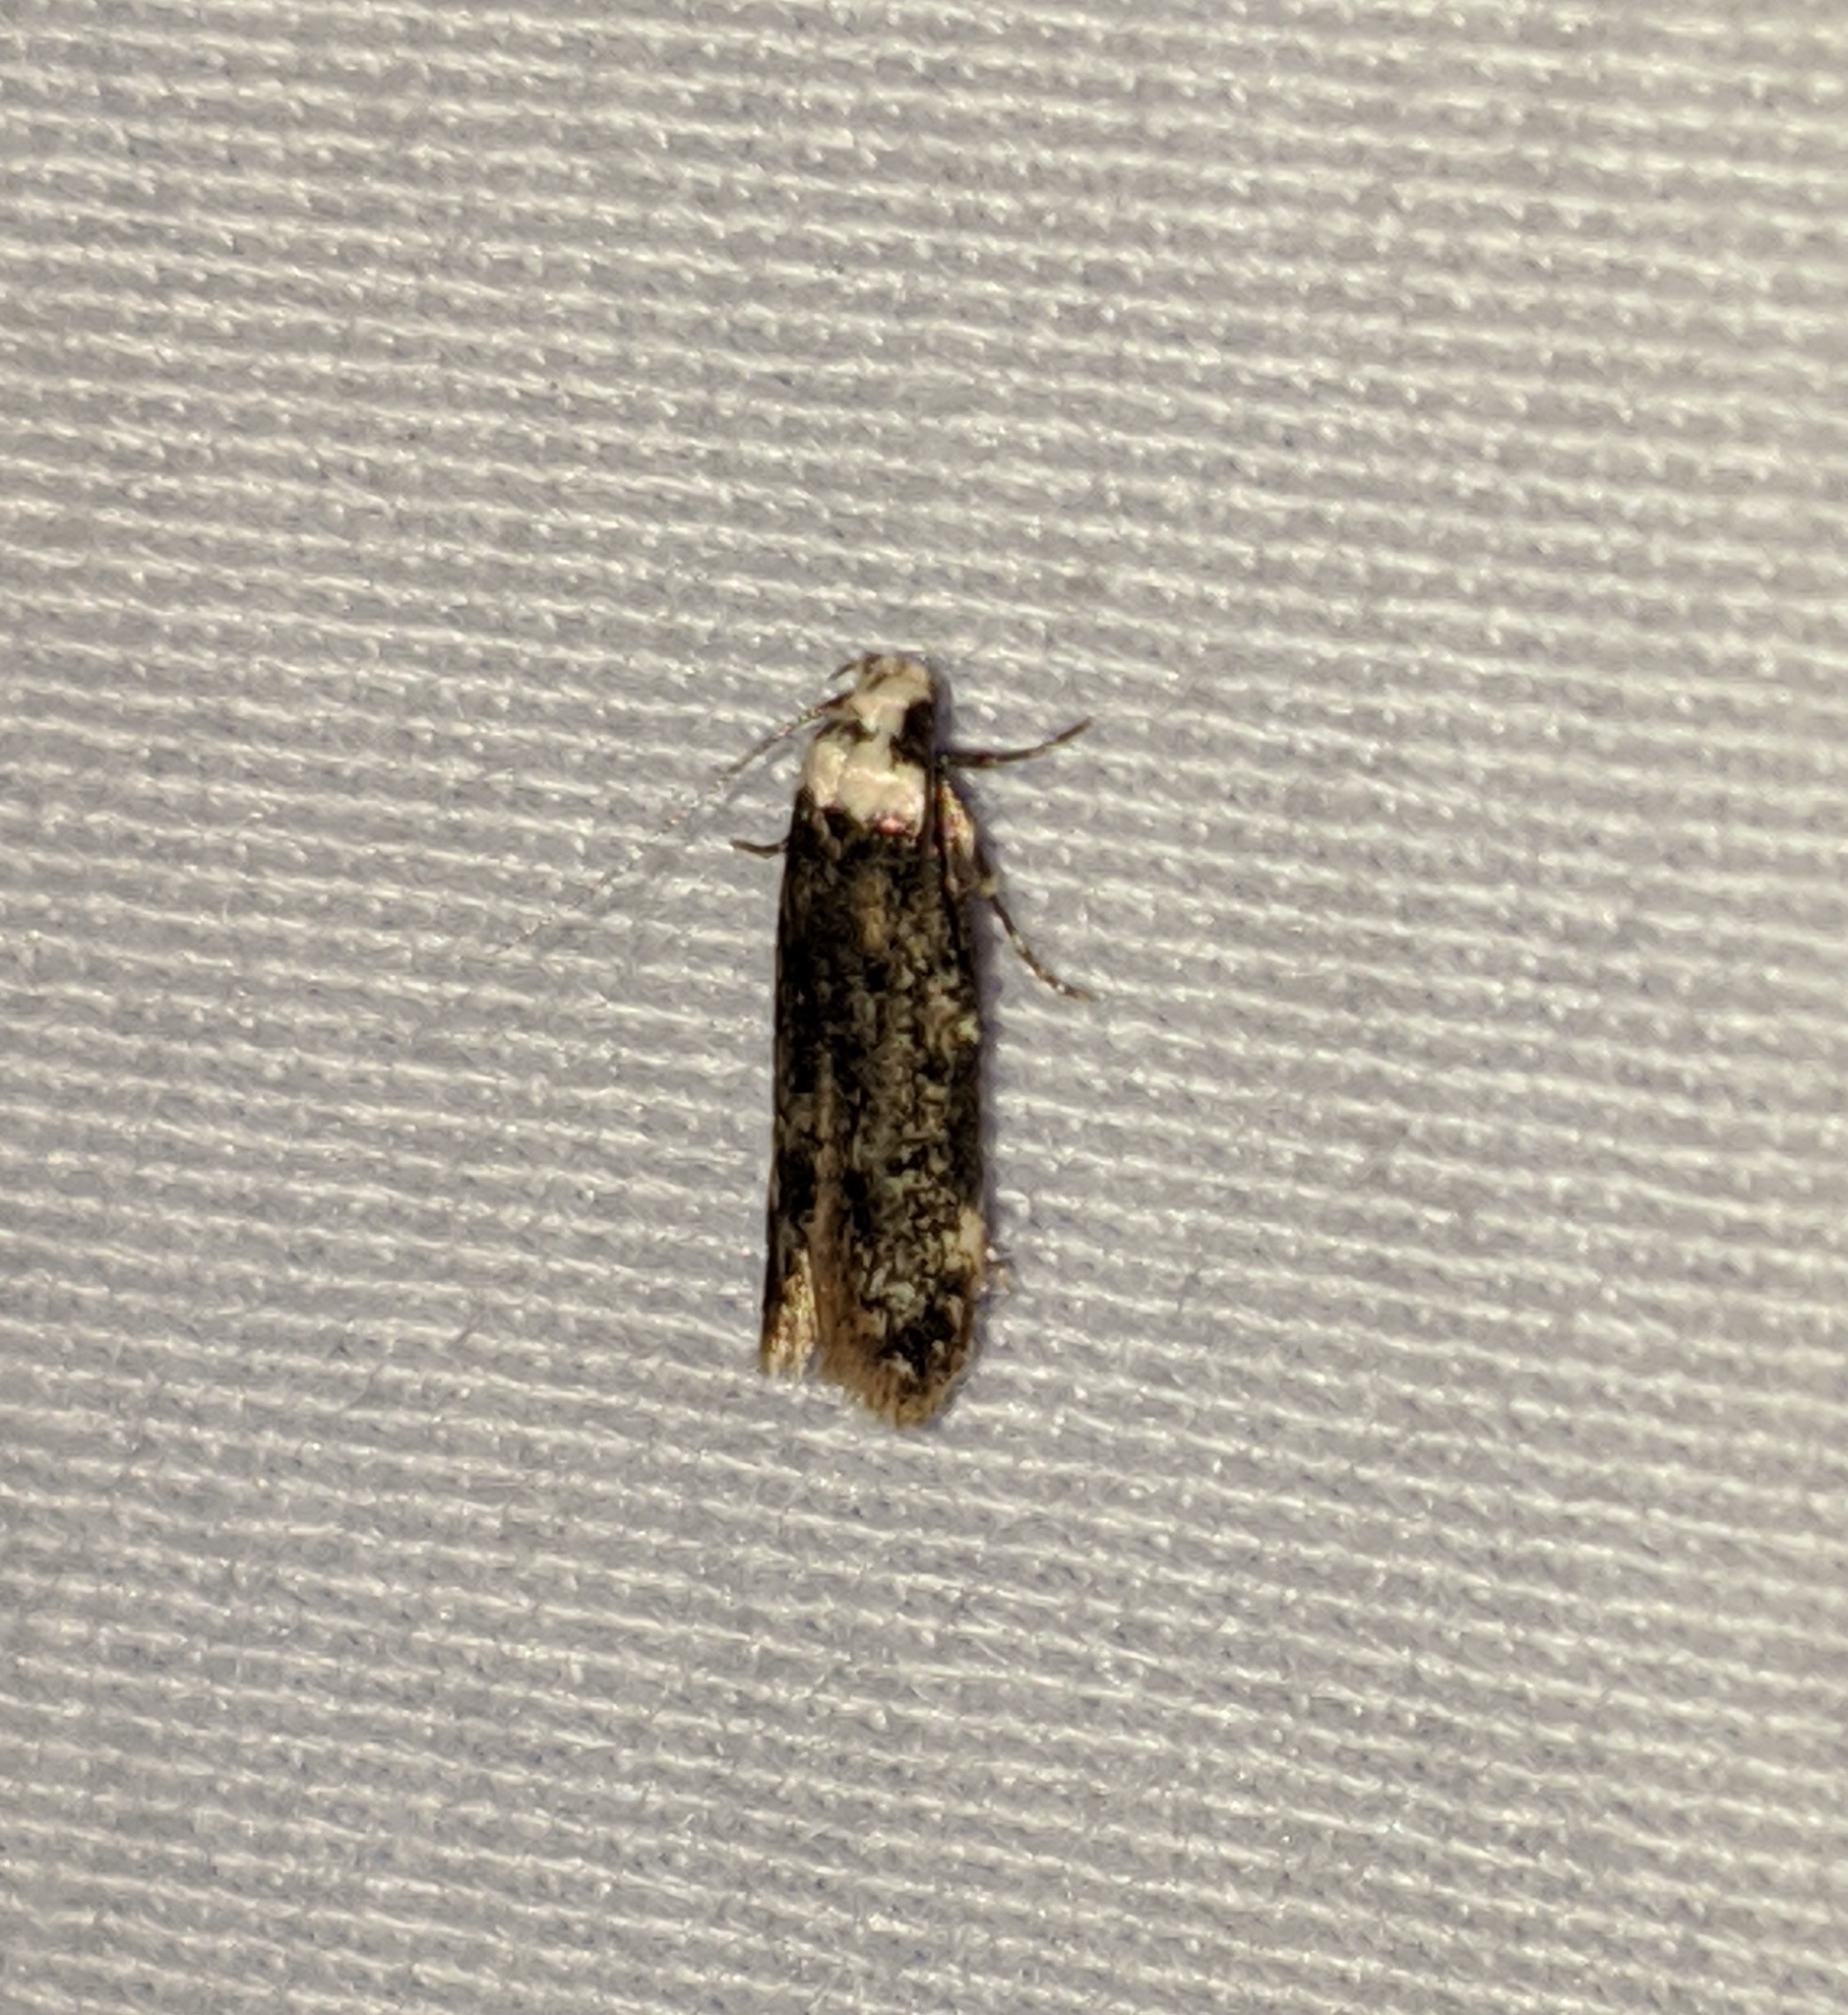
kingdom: Animalia
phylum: Arthropoda
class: Insecta
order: Lepidoptera
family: Oecophoridae
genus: Endrosis
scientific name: Endrosis sarcitrella
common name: White-shouldered house moth
